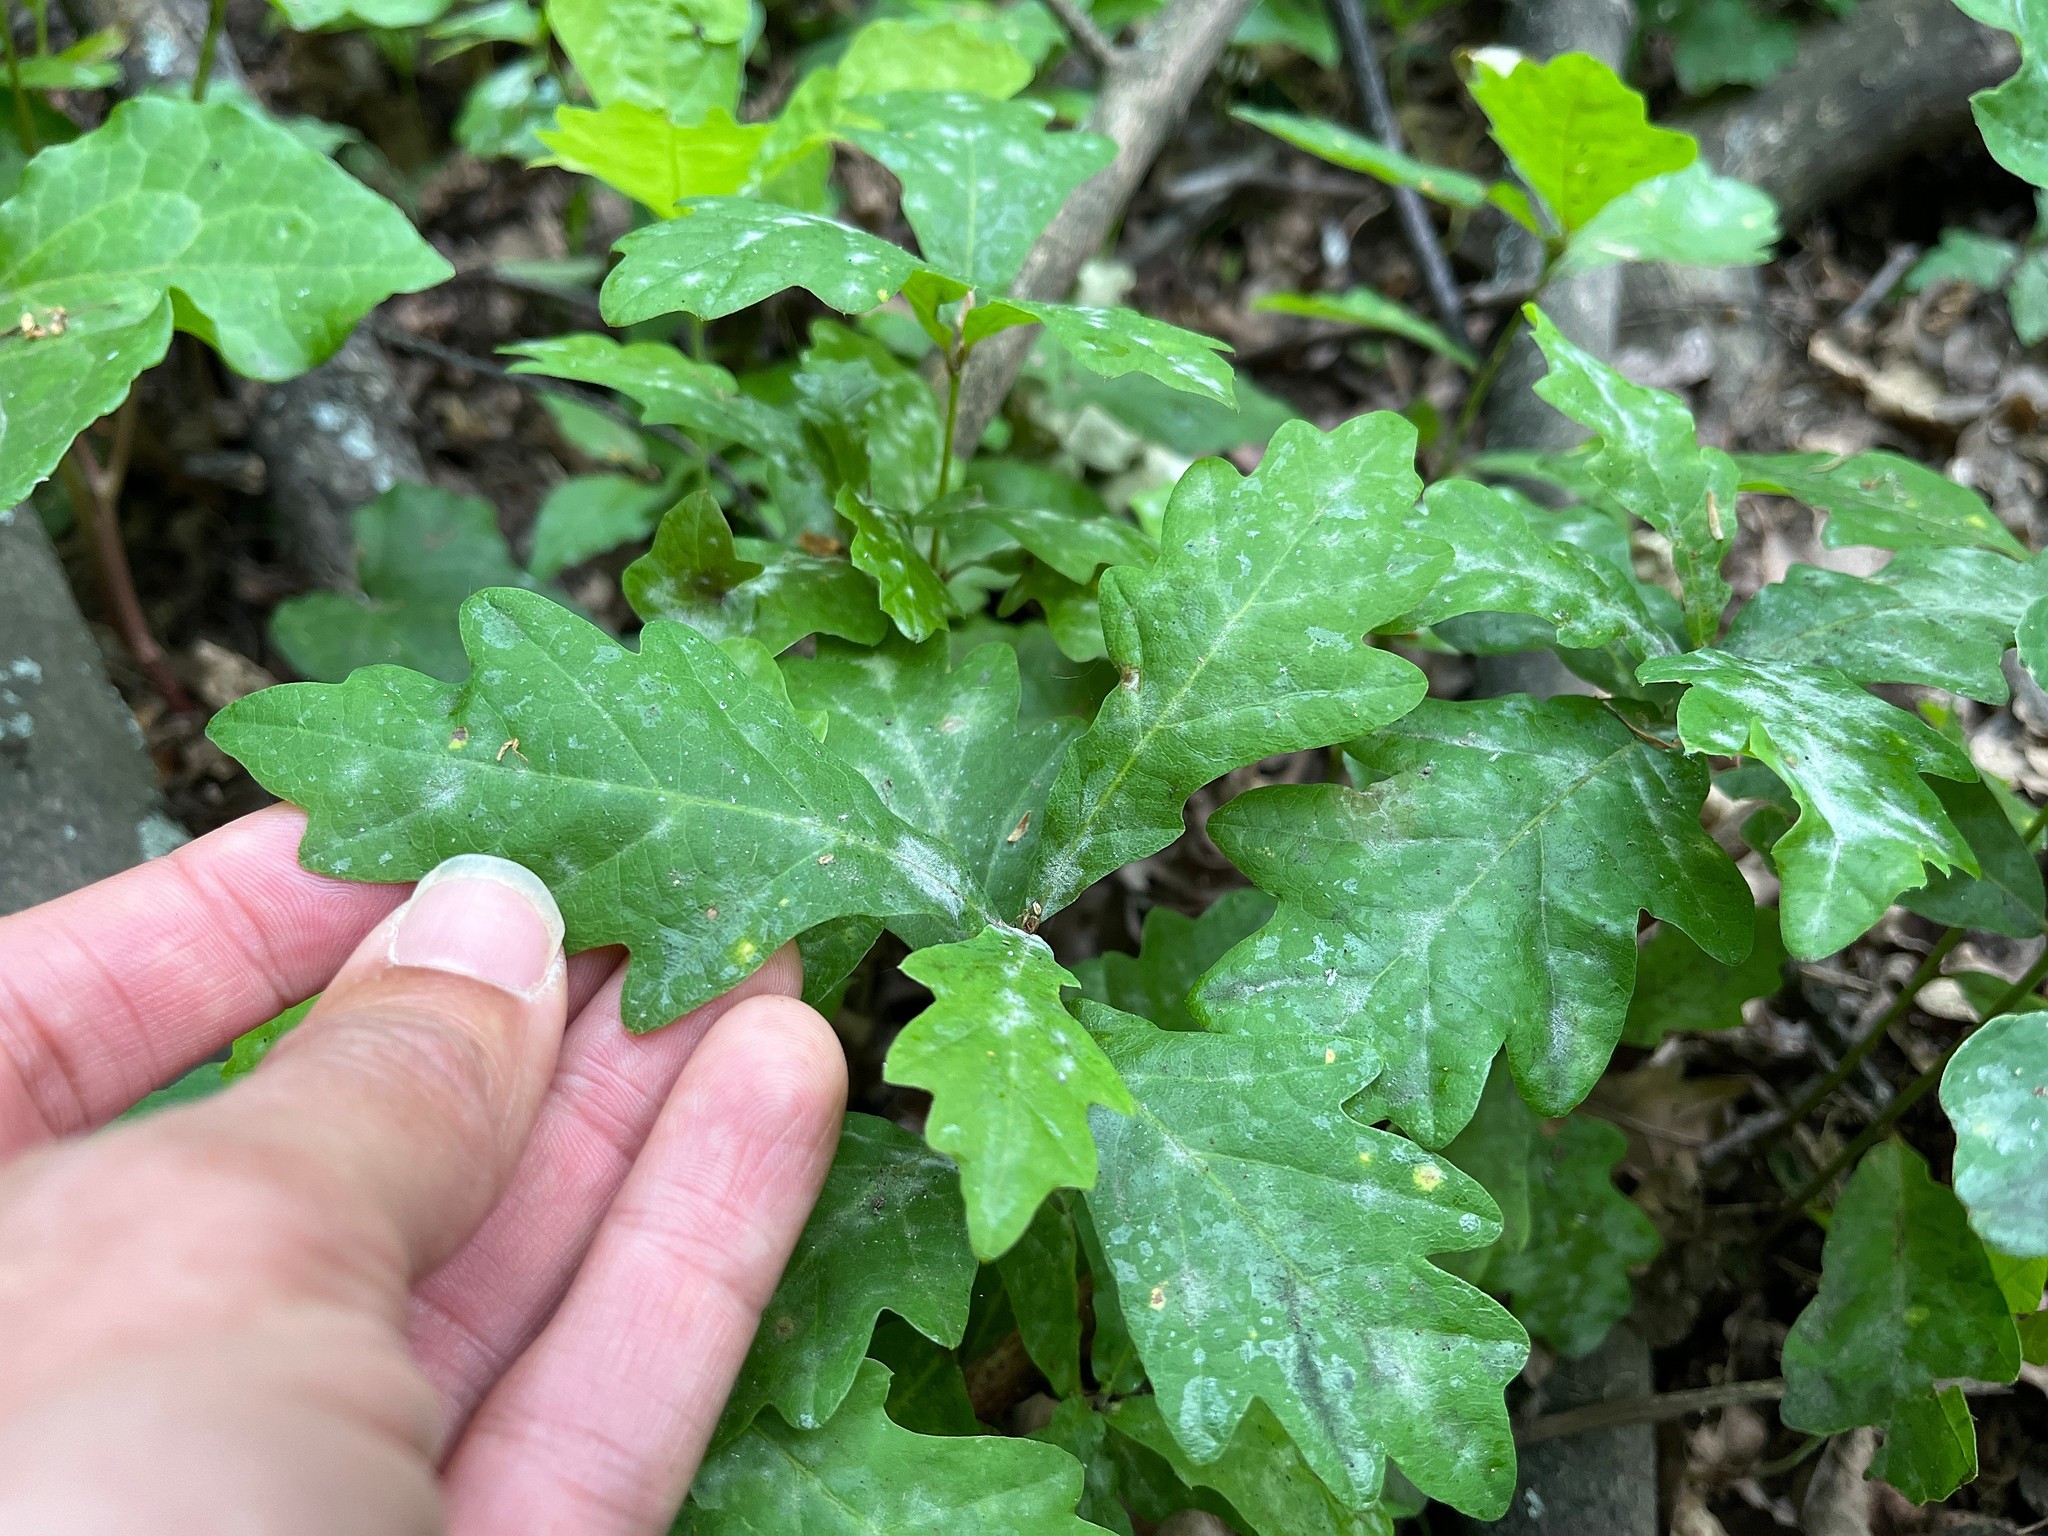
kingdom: Fungi
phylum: Ascomycota
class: Leotiomycetes
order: Helotiales
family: Erysiphaceae
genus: Erysiphe
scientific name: Erysiphe alphitoides
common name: Oak mildew
